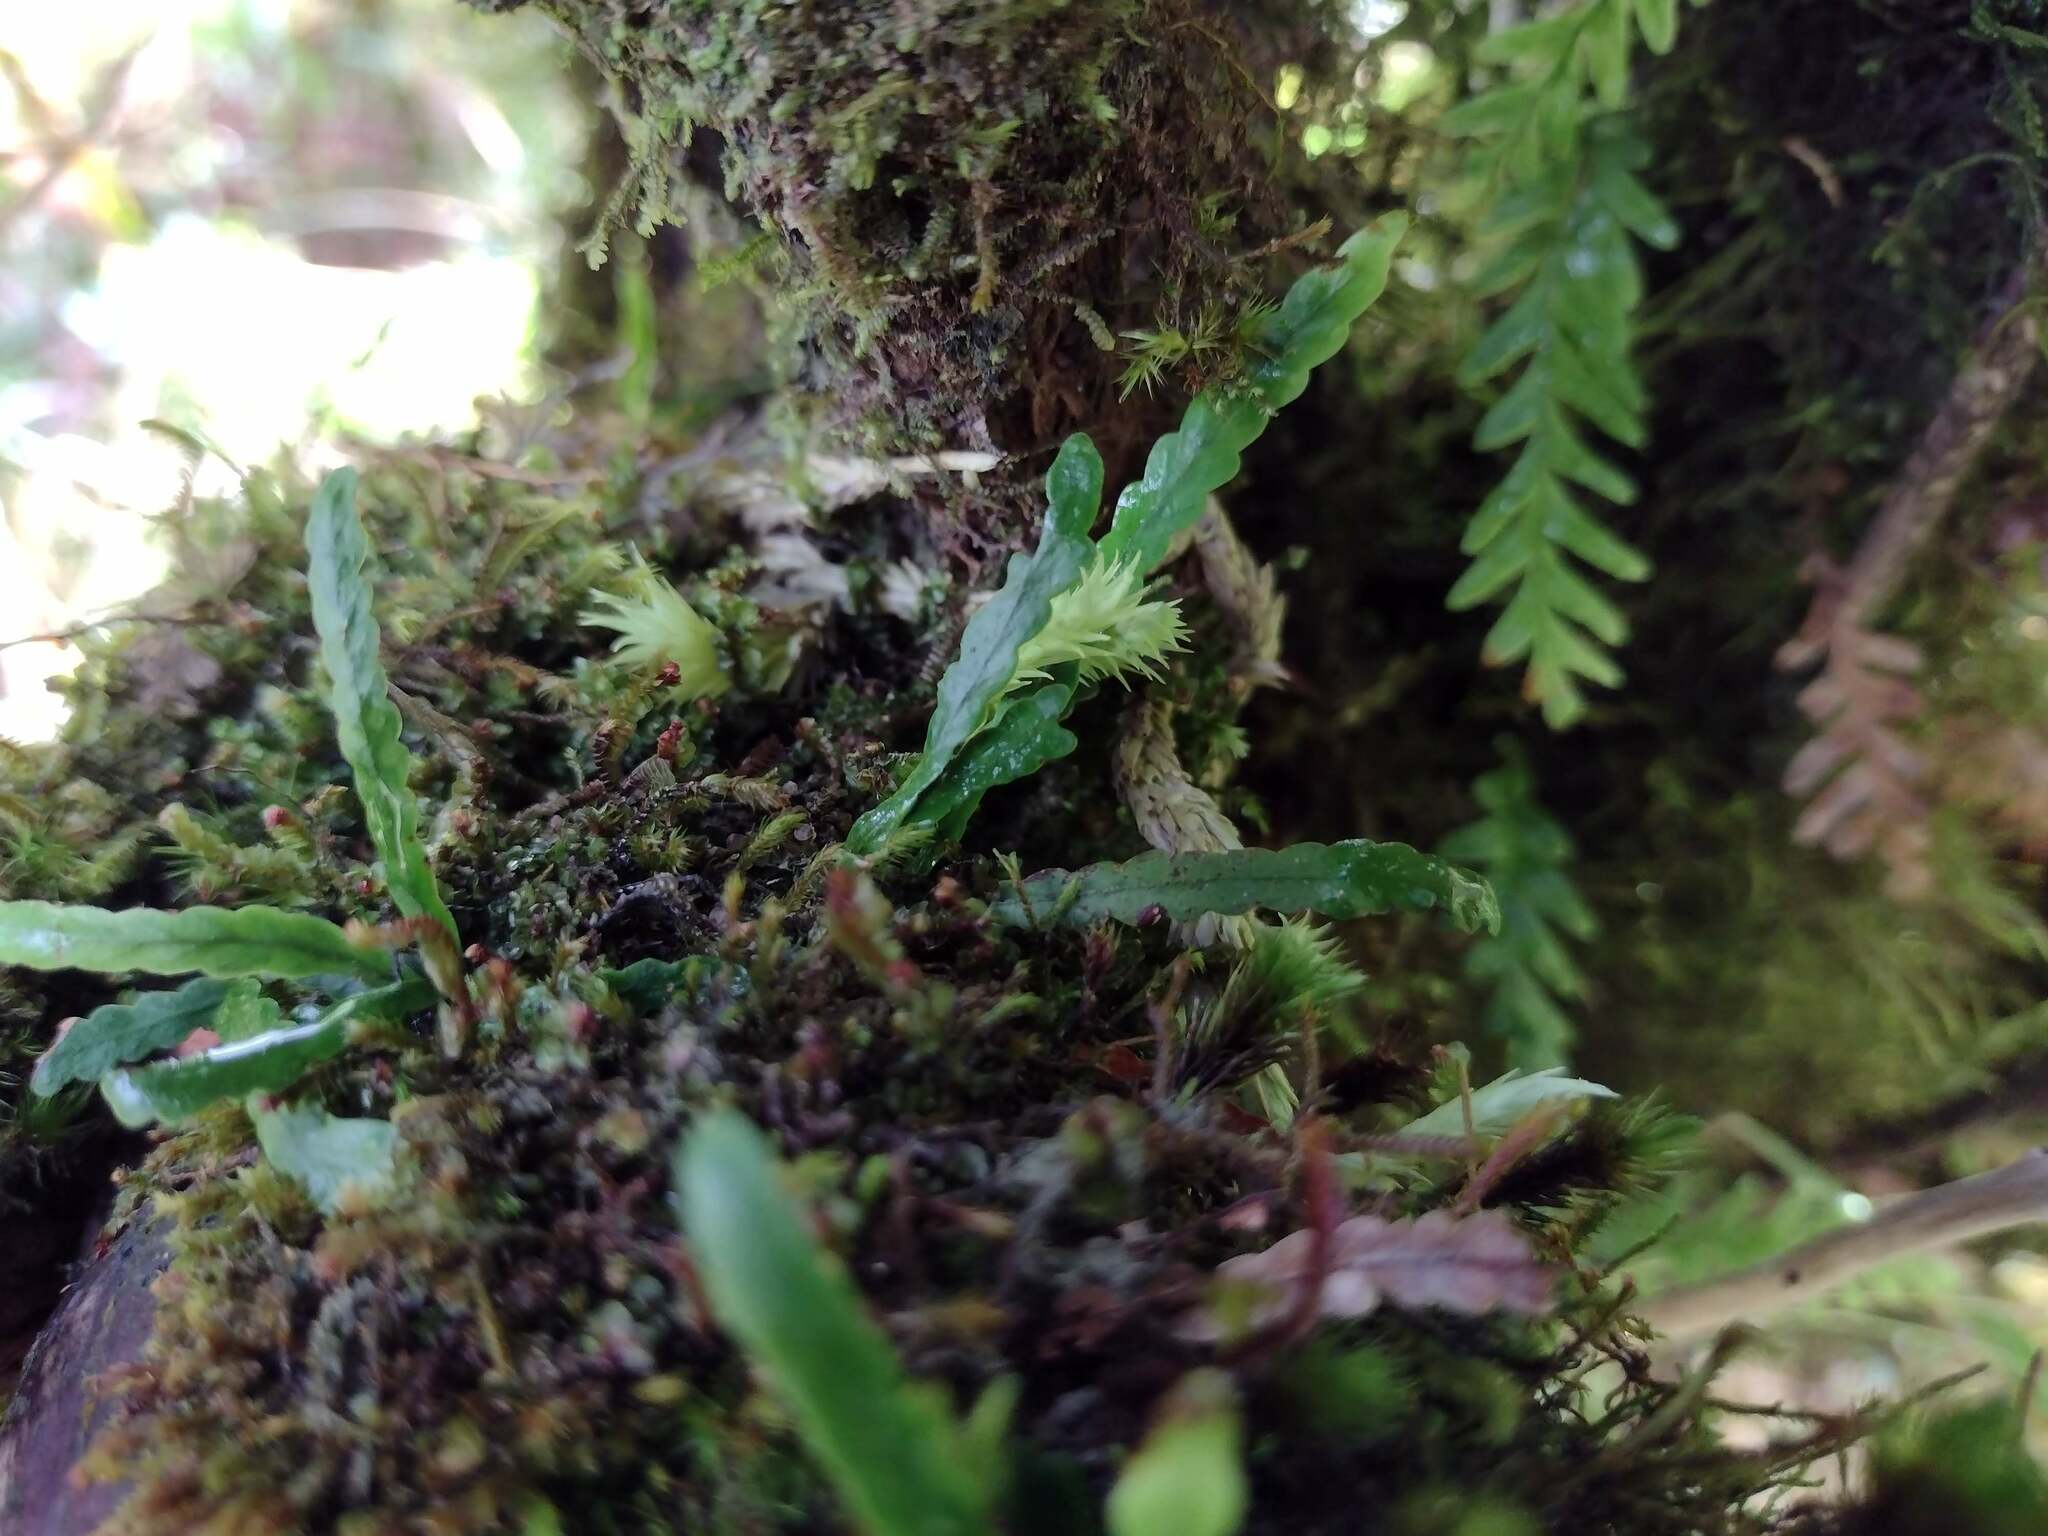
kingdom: Plantae
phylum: Tracheophyta
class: Polypodiopsida
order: Polypodiales
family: Polypodiaceae
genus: Adenophorus
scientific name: Adenophorus haalilioanus
